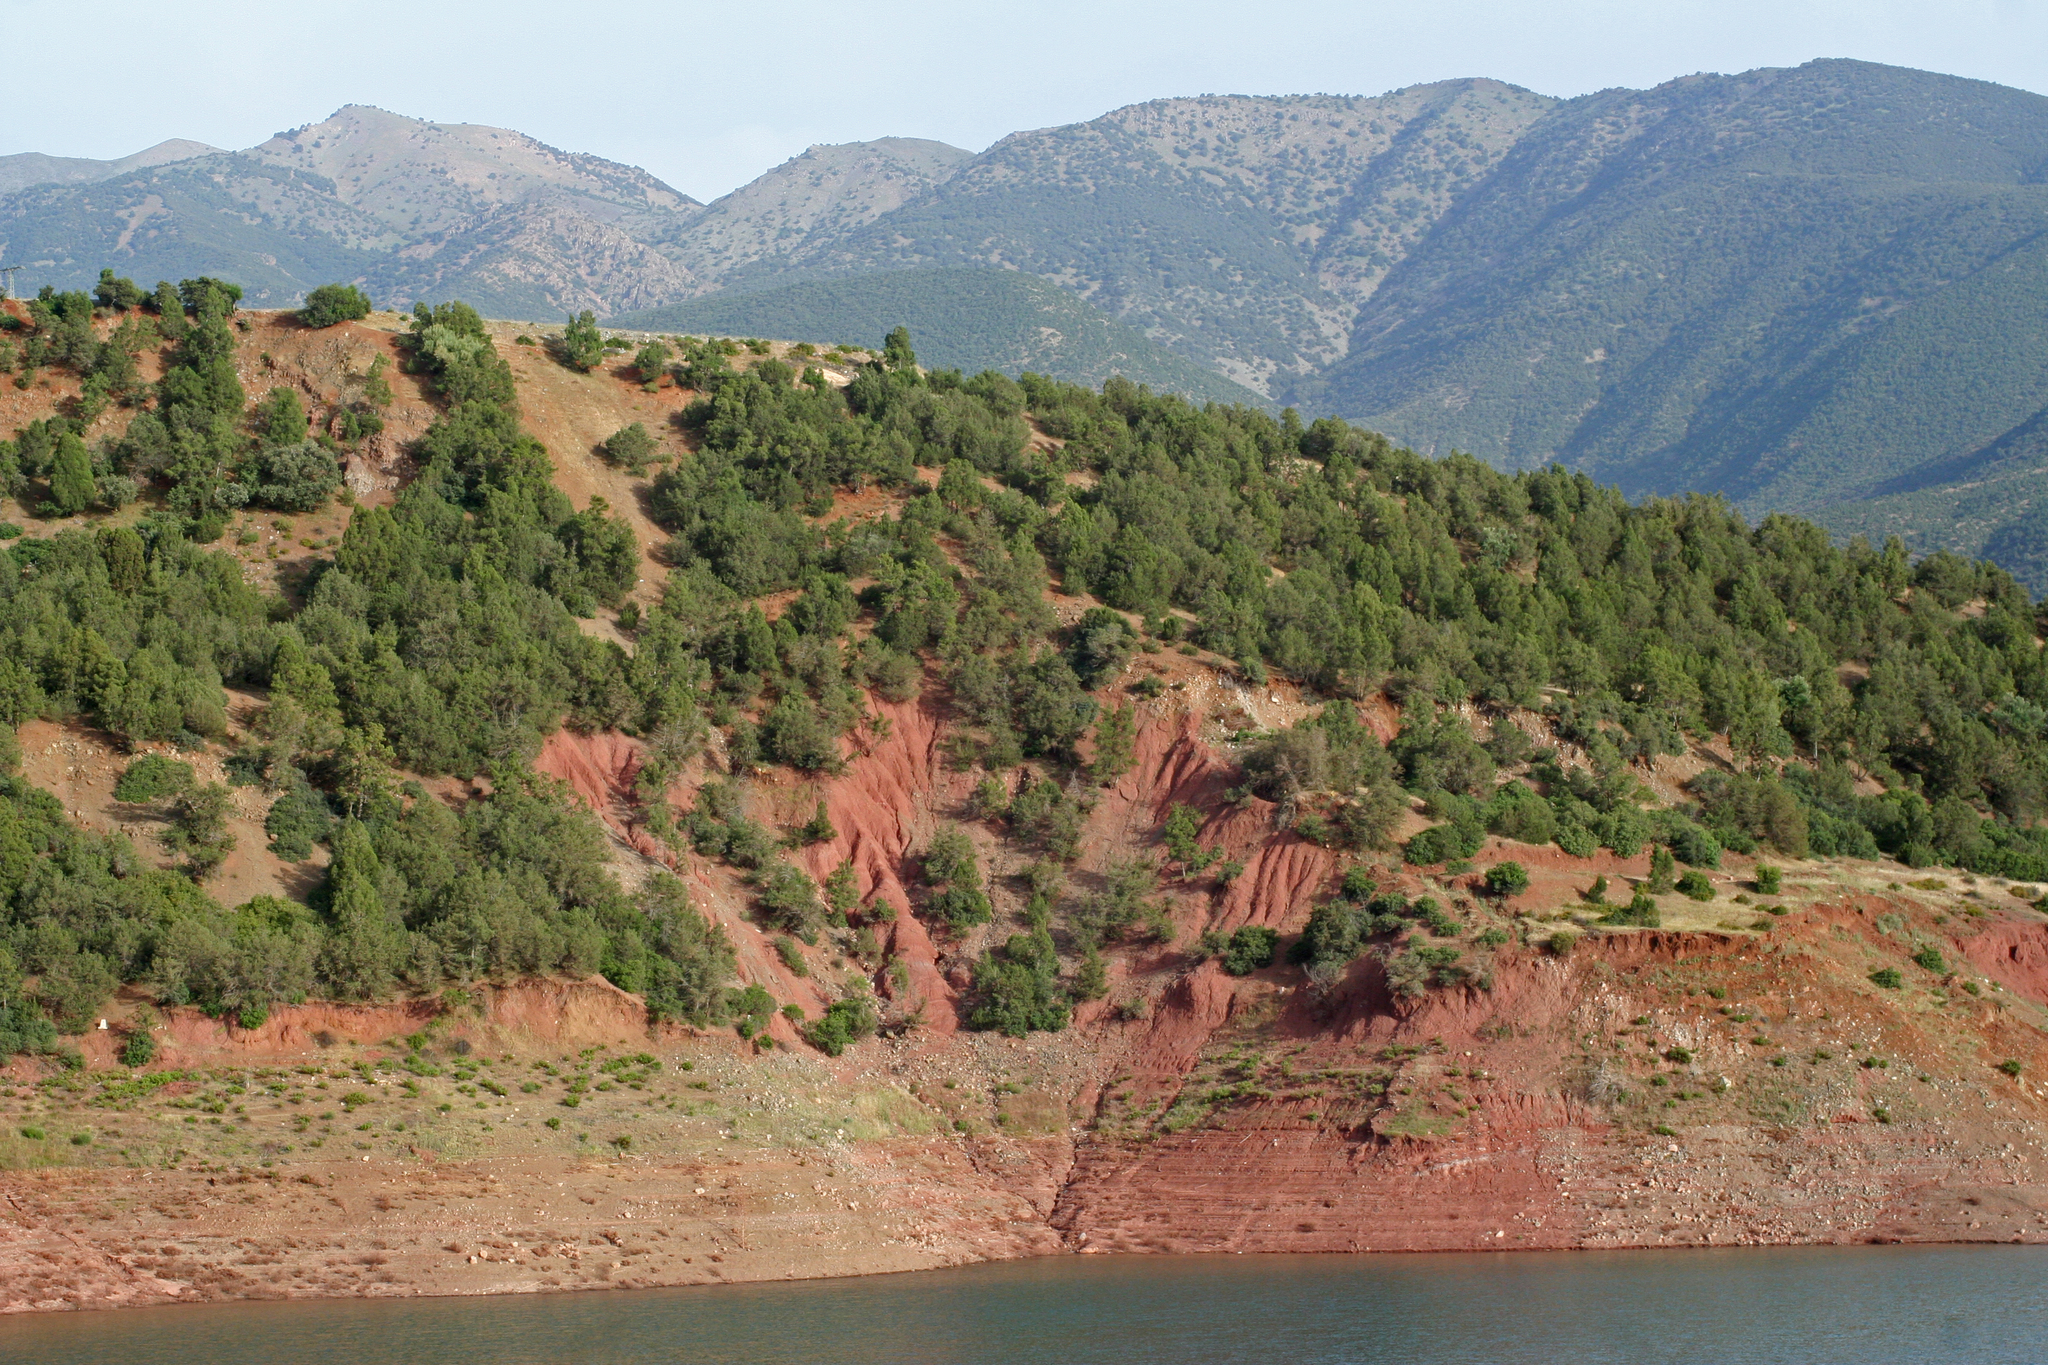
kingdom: Plantae
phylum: Tracheophyta
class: Pinopsida
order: Pinales
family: Cupressaceae
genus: Tetraclinis
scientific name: Tetraclinis articulata
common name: Sandarac
